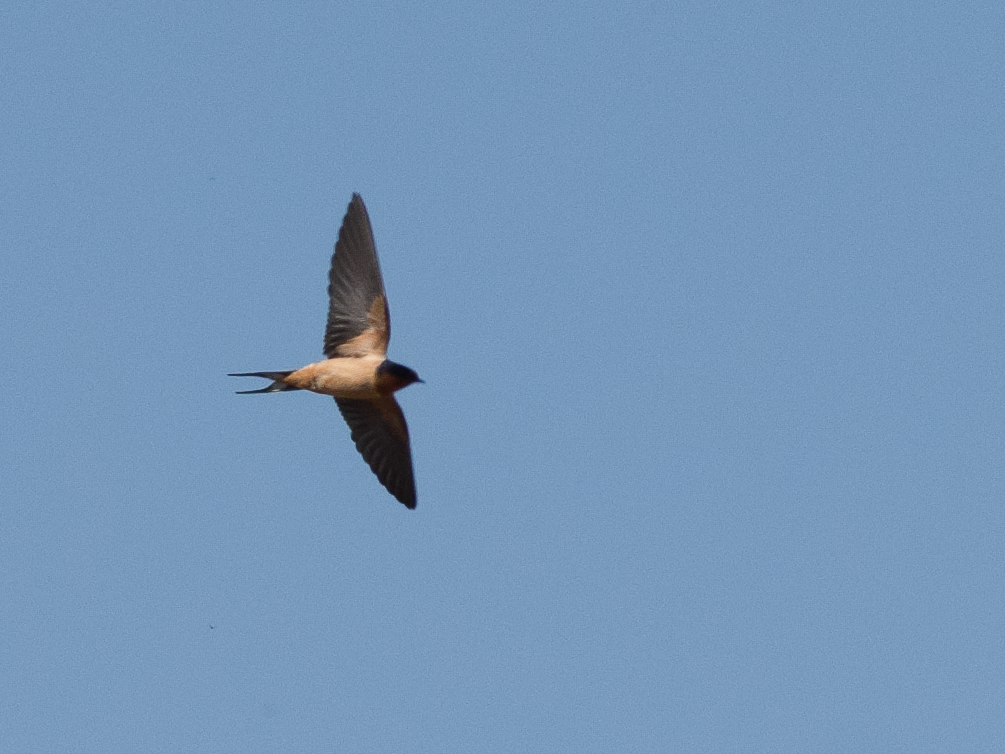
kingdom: Animalia
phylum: Chordata
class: Aves
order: Passeriformes
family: Hirundinidae
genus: Hirundo
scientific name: Hirundo rustica
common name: Barn swallow
